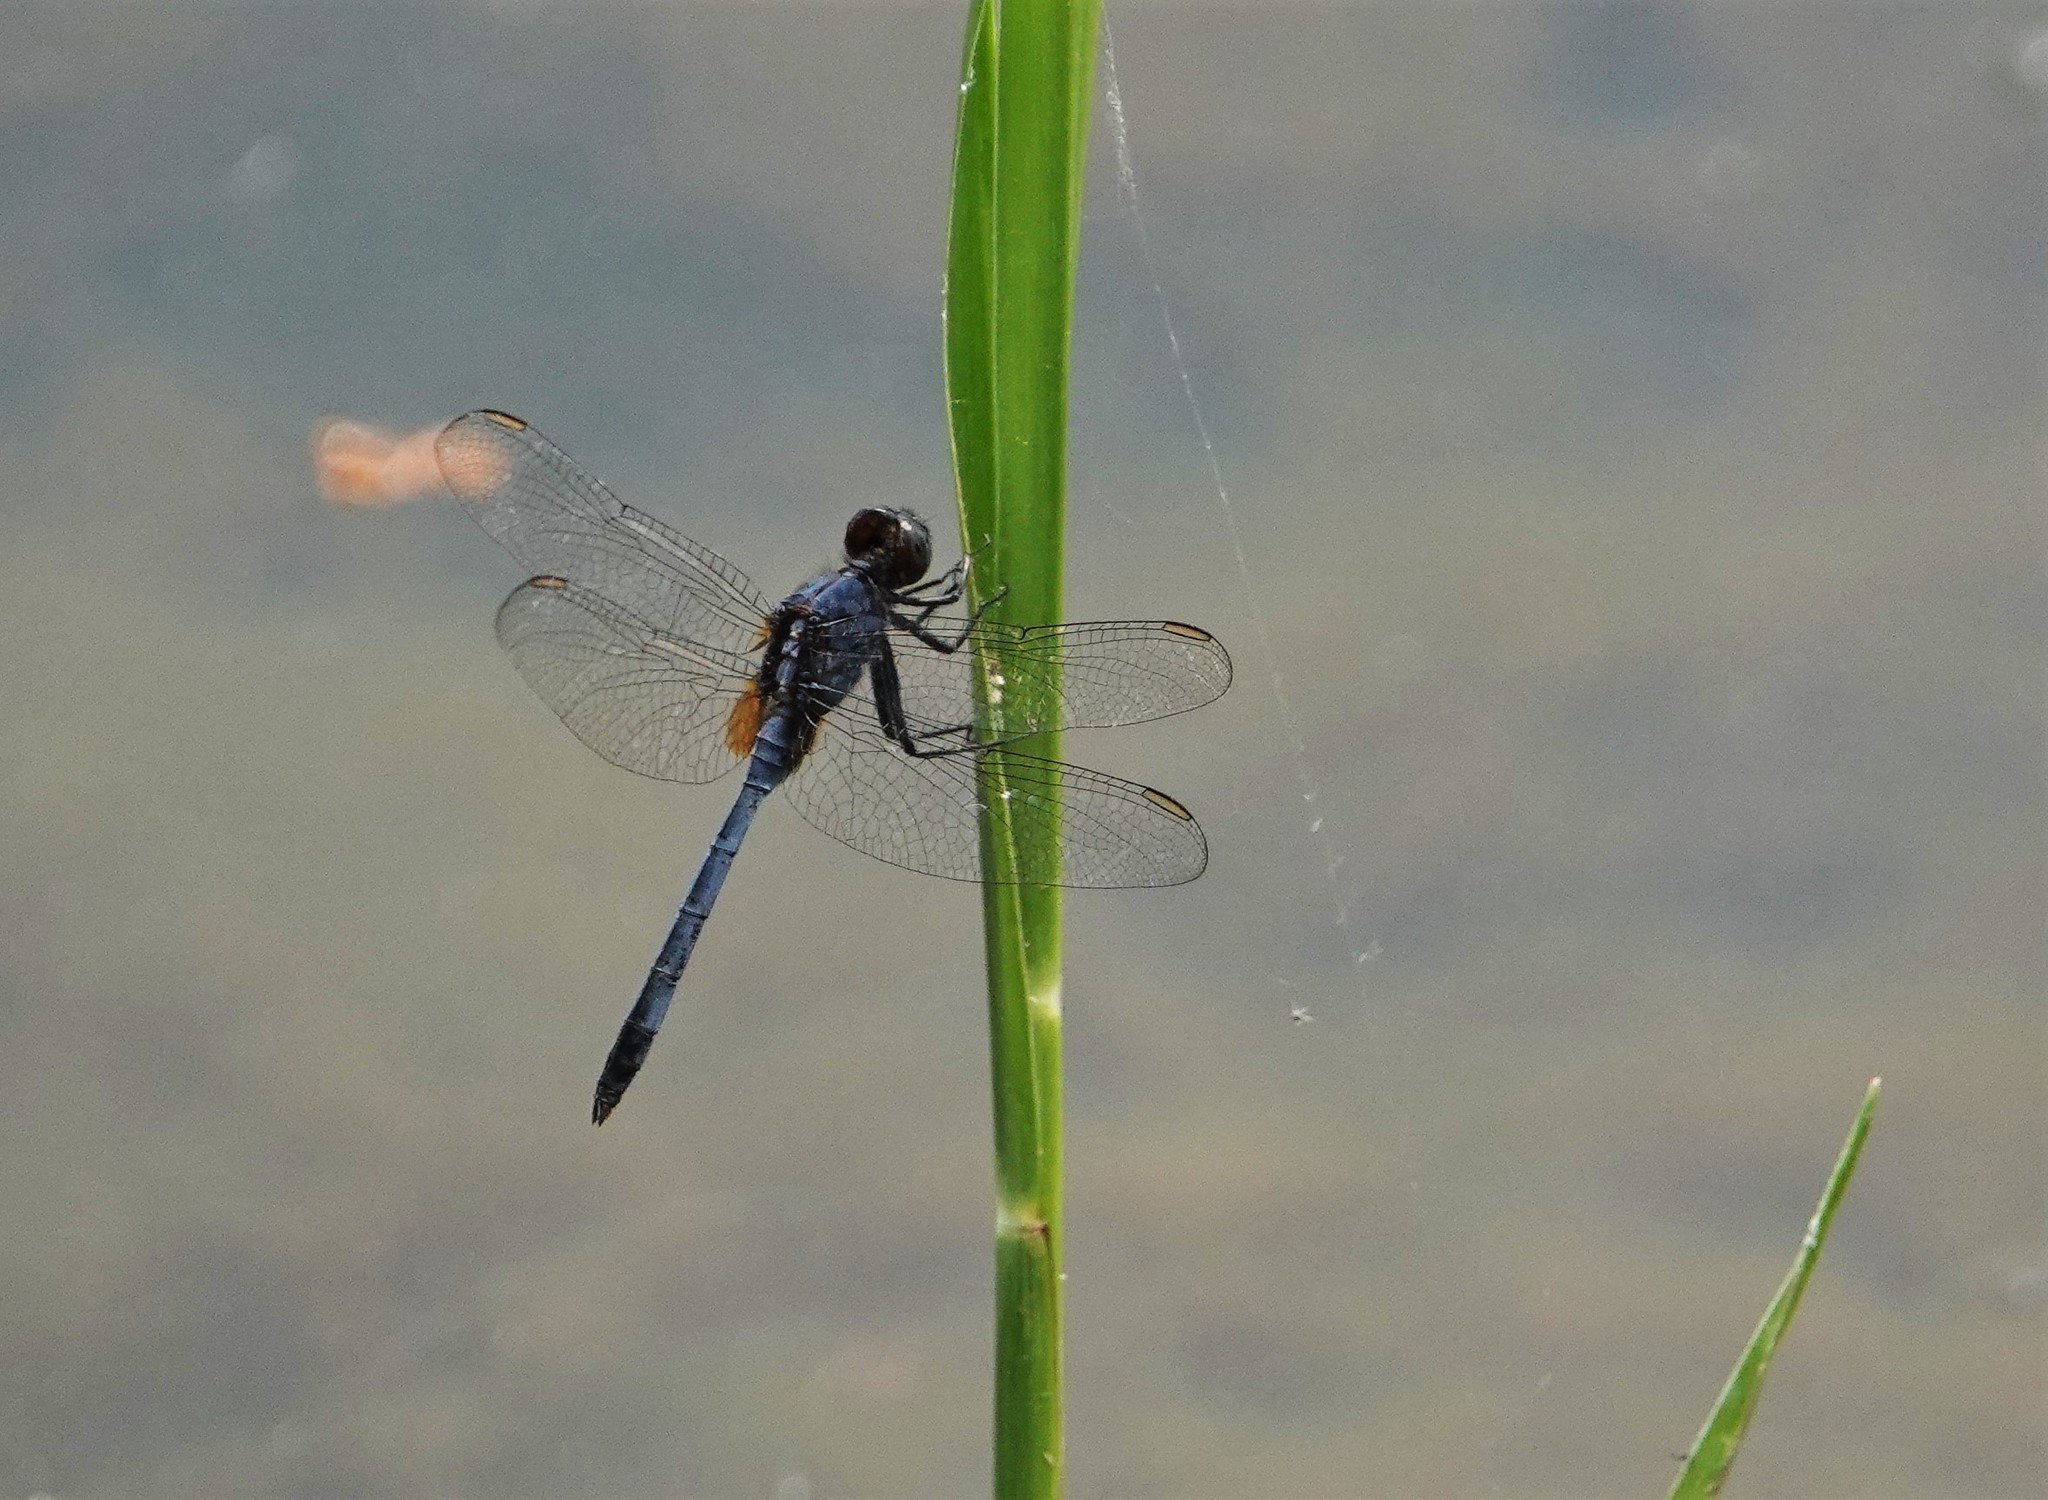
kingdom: Animalia
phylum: Arthropoda
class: Insecta
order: Odonata
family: Libellulidae
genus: Erythemis
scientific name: Erythemis credula
